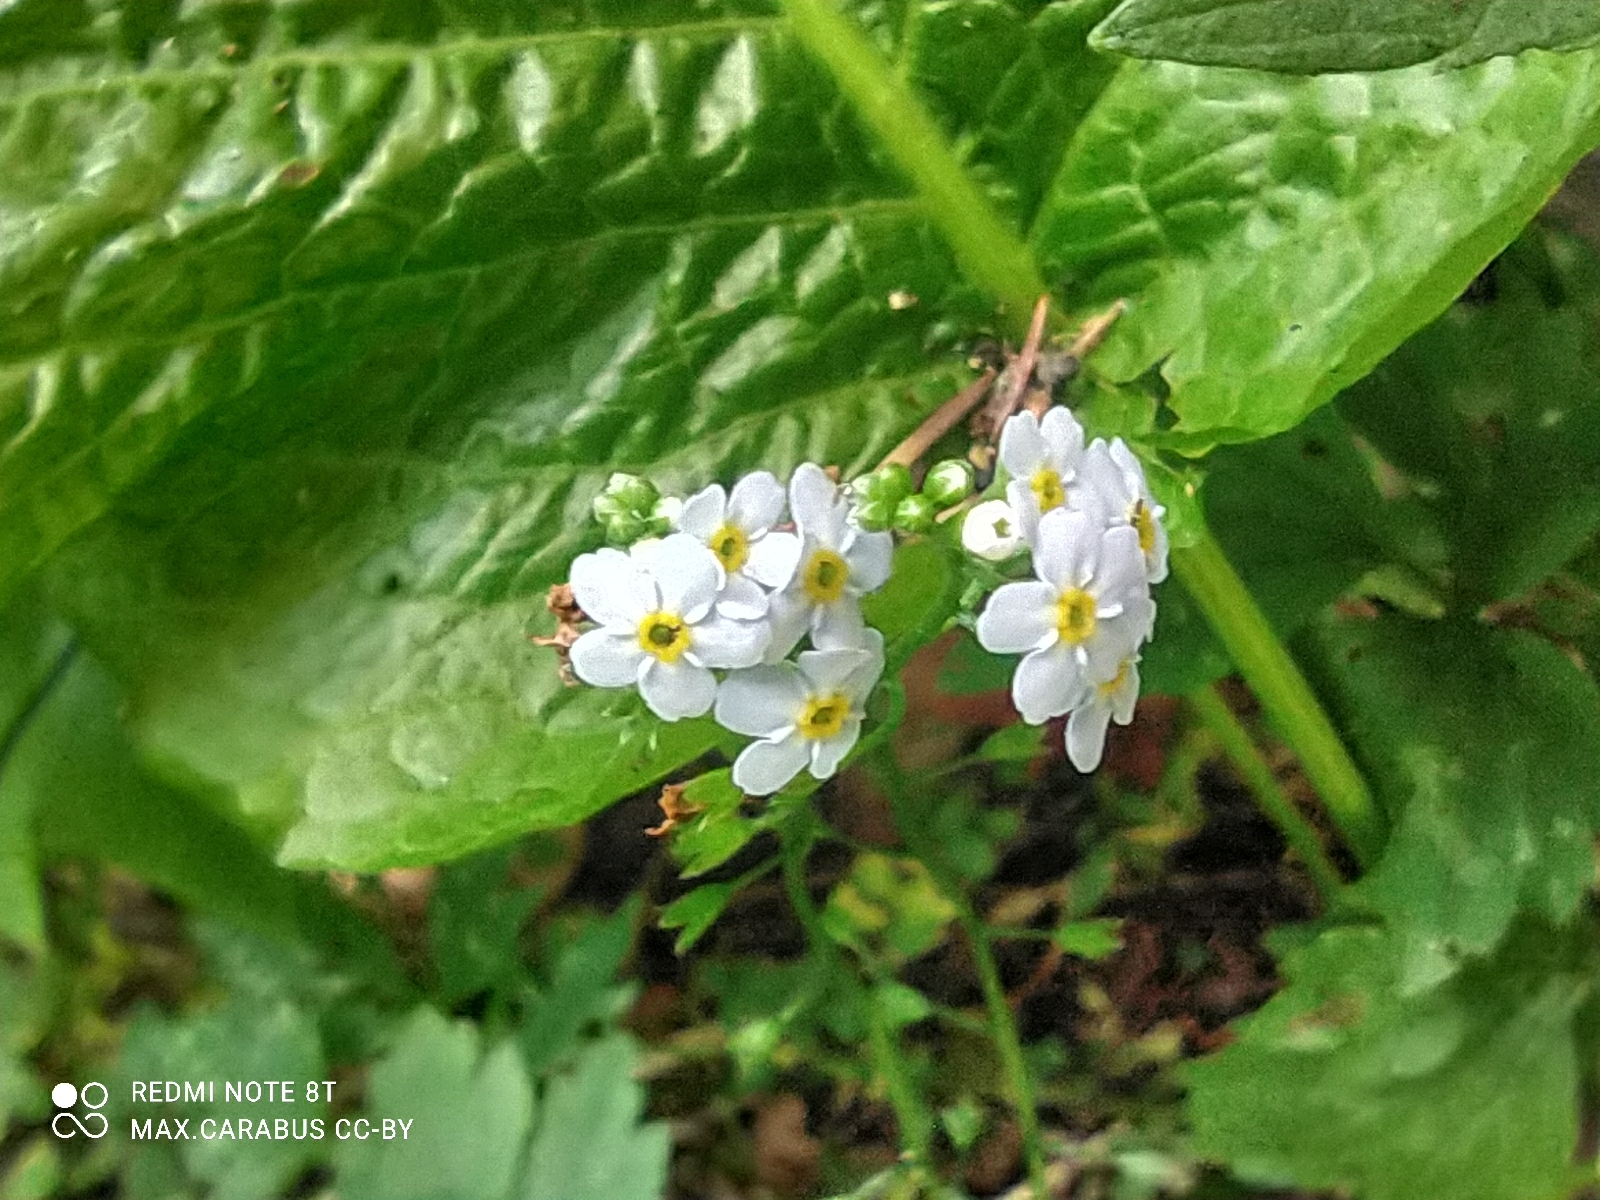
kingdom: Plantae
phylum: Tracheophyta
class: Magnoliopsida
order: Boraginales
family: Boraginaceae
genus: Myosotis
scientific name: Myosotis scorpioides
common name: Water forget-me-not
